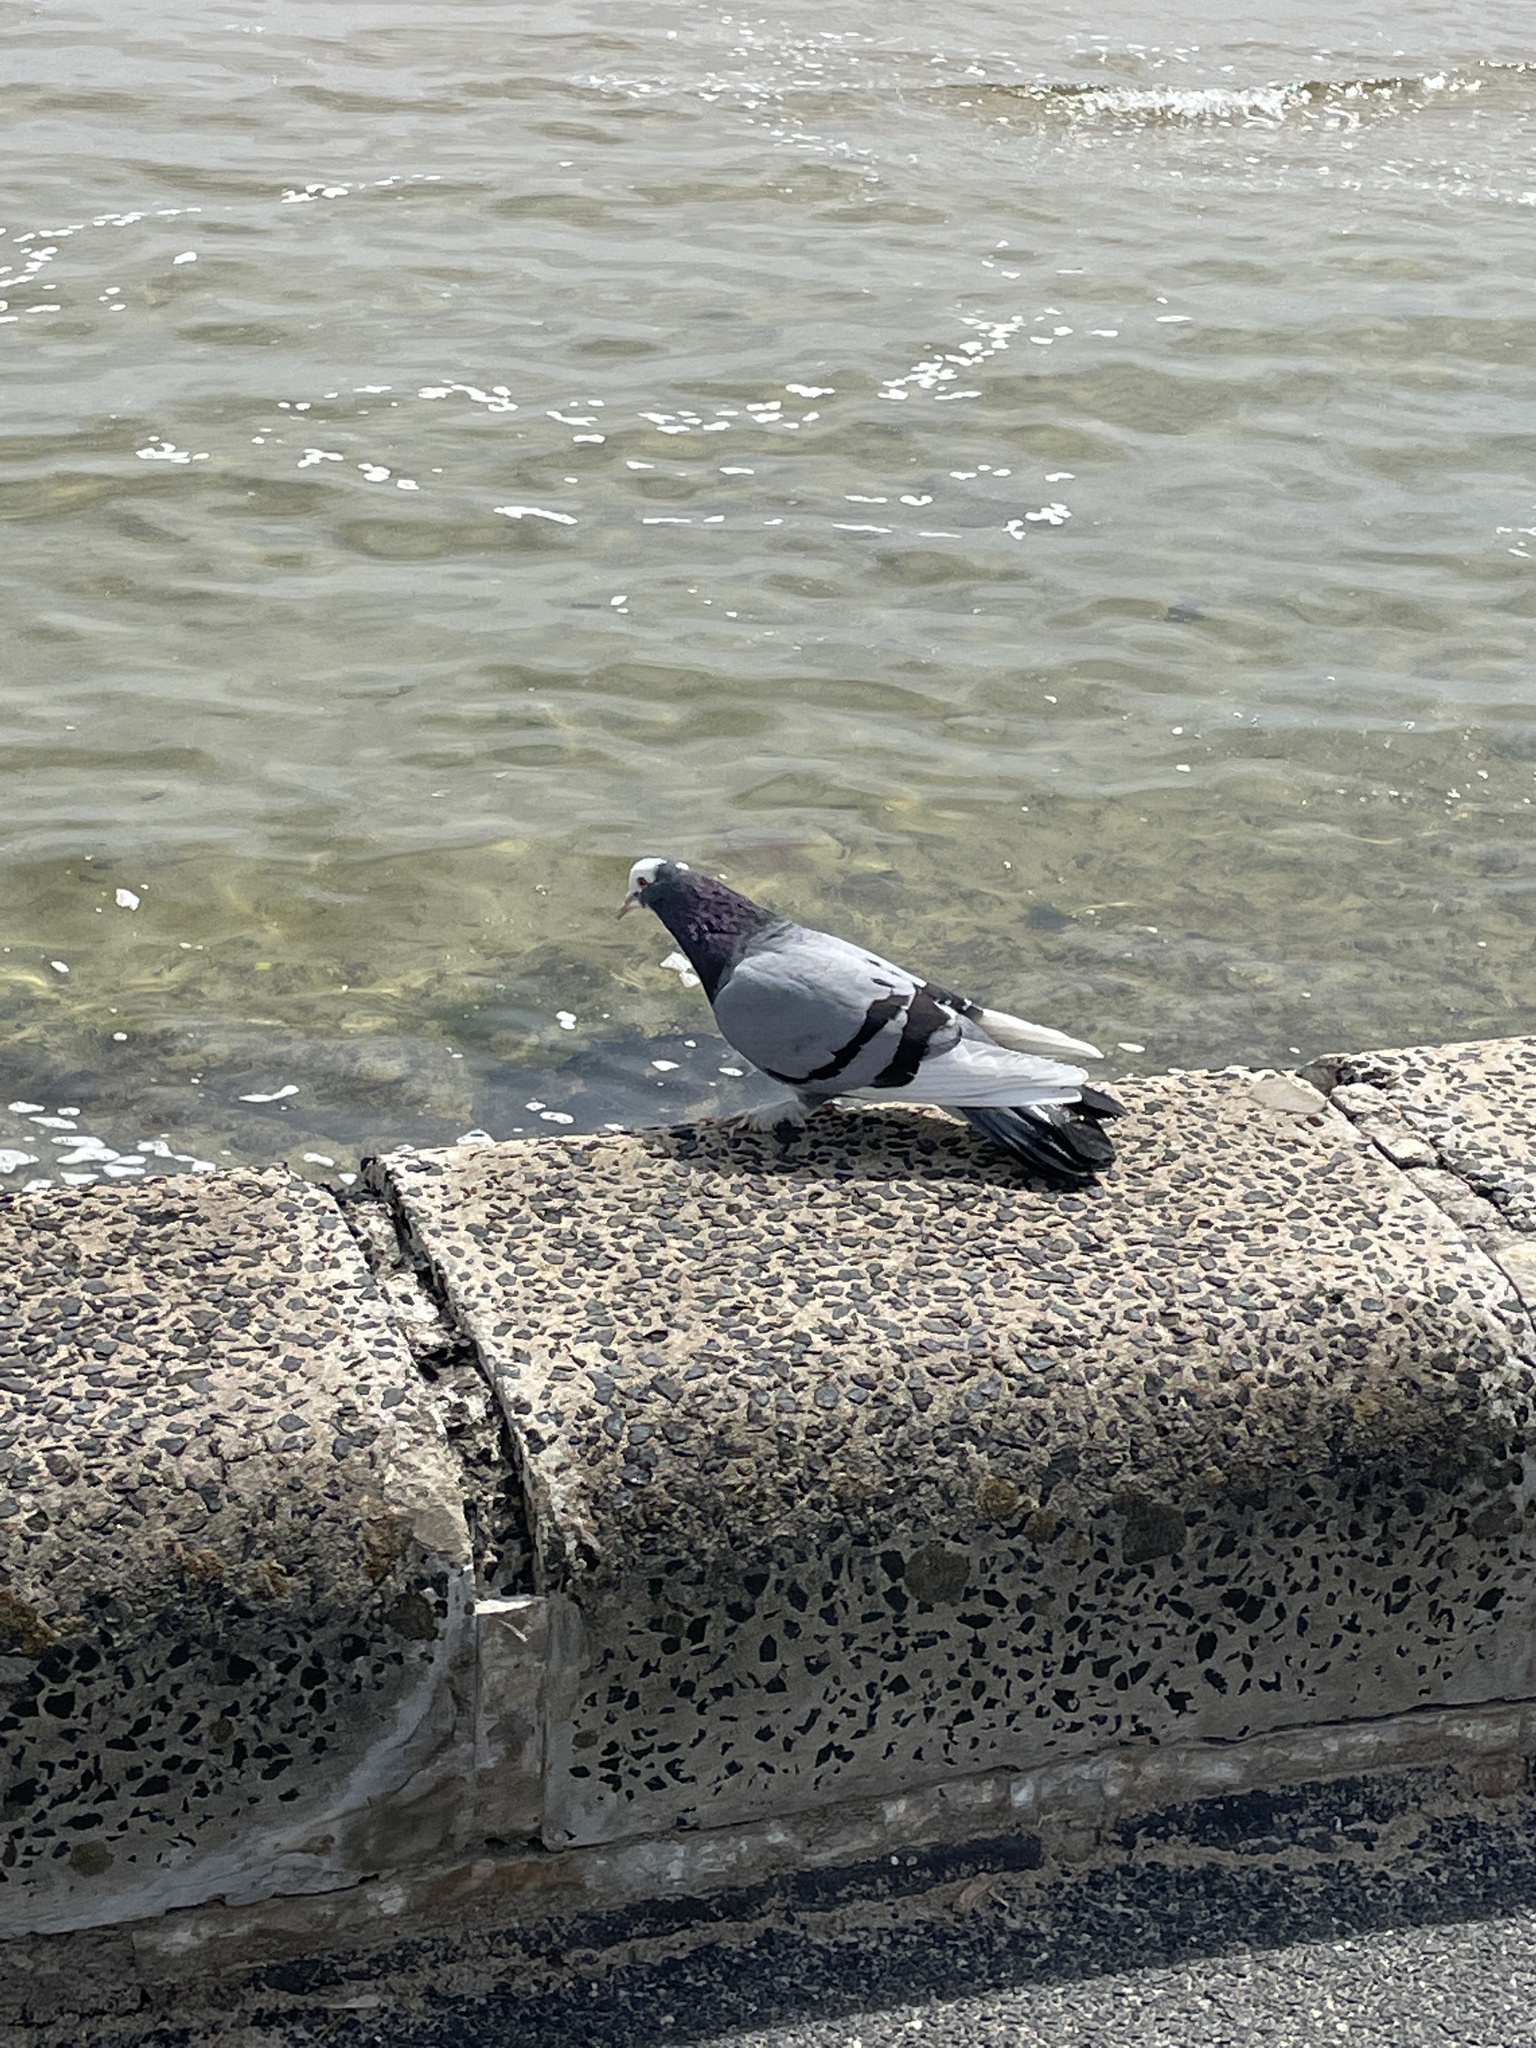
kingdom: Animalia
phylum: Chordata
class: Aves
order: Columbiformes
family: Columbidae
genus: Columba
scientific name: Columba livia
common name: Rock pigeon
